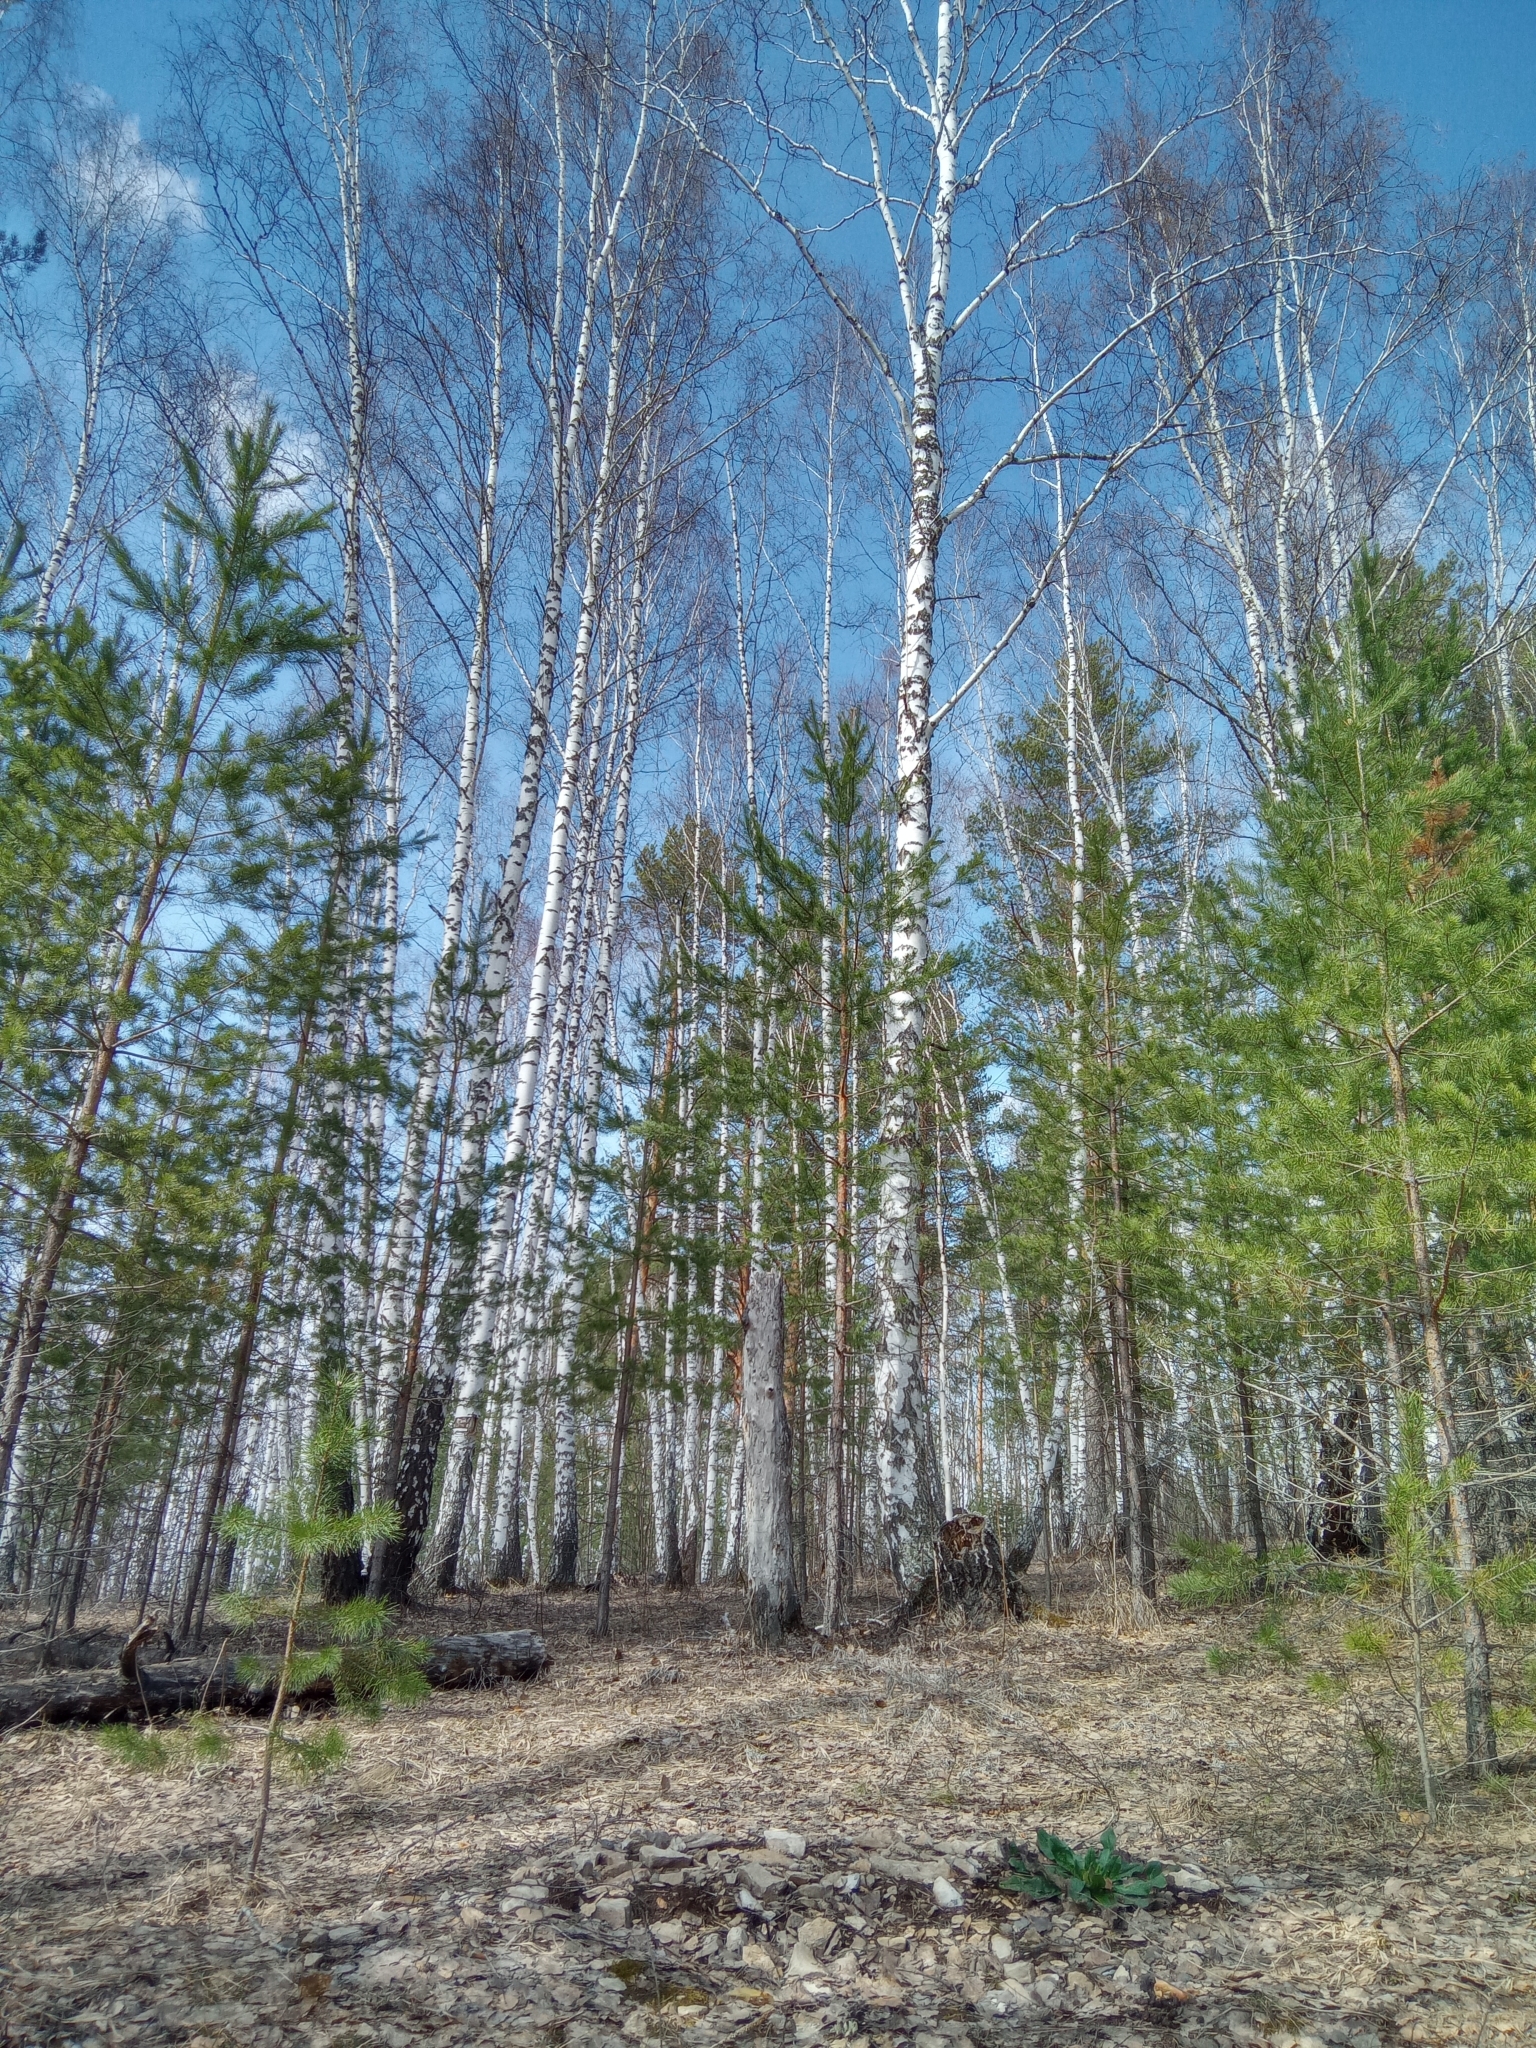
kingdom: Plantae
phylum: Tracheophyta
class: Pinopsida
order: Pinales
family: Pinaceae
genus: Pinus
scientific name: Pinus sylvestris
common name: Scots pine
